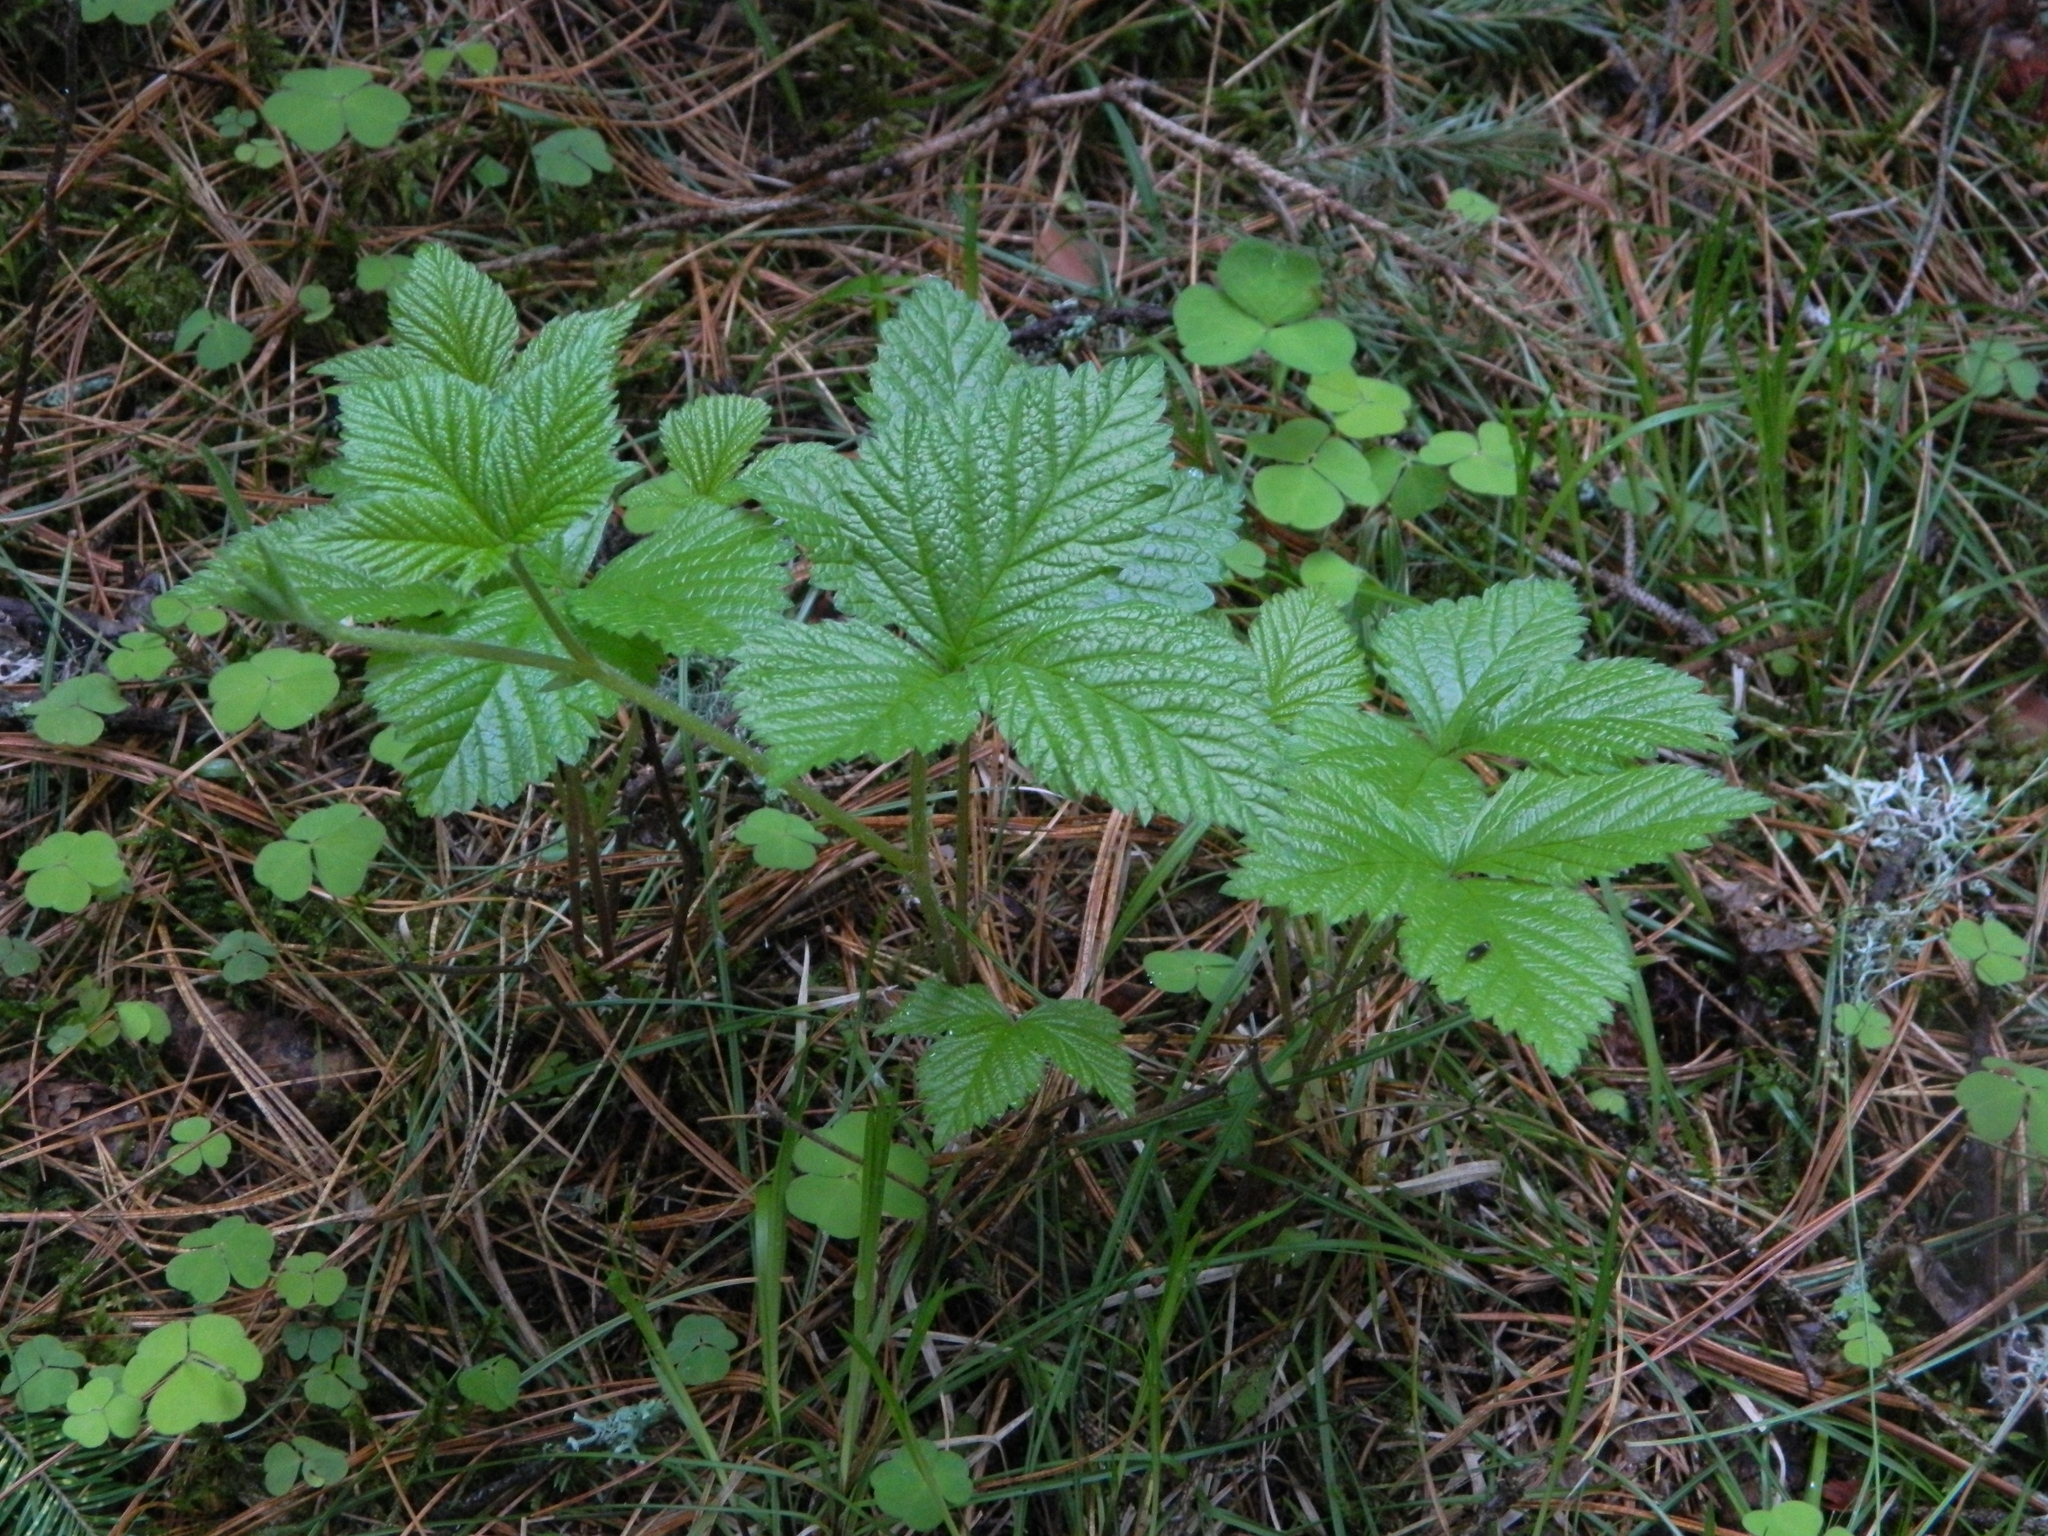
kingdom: Plantae
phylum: Tracheophyta
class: Magnoliopsida
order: Rosales
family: Rosaceae
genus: Rubus
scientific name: Rubus saxatilis
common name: Stone bramble
